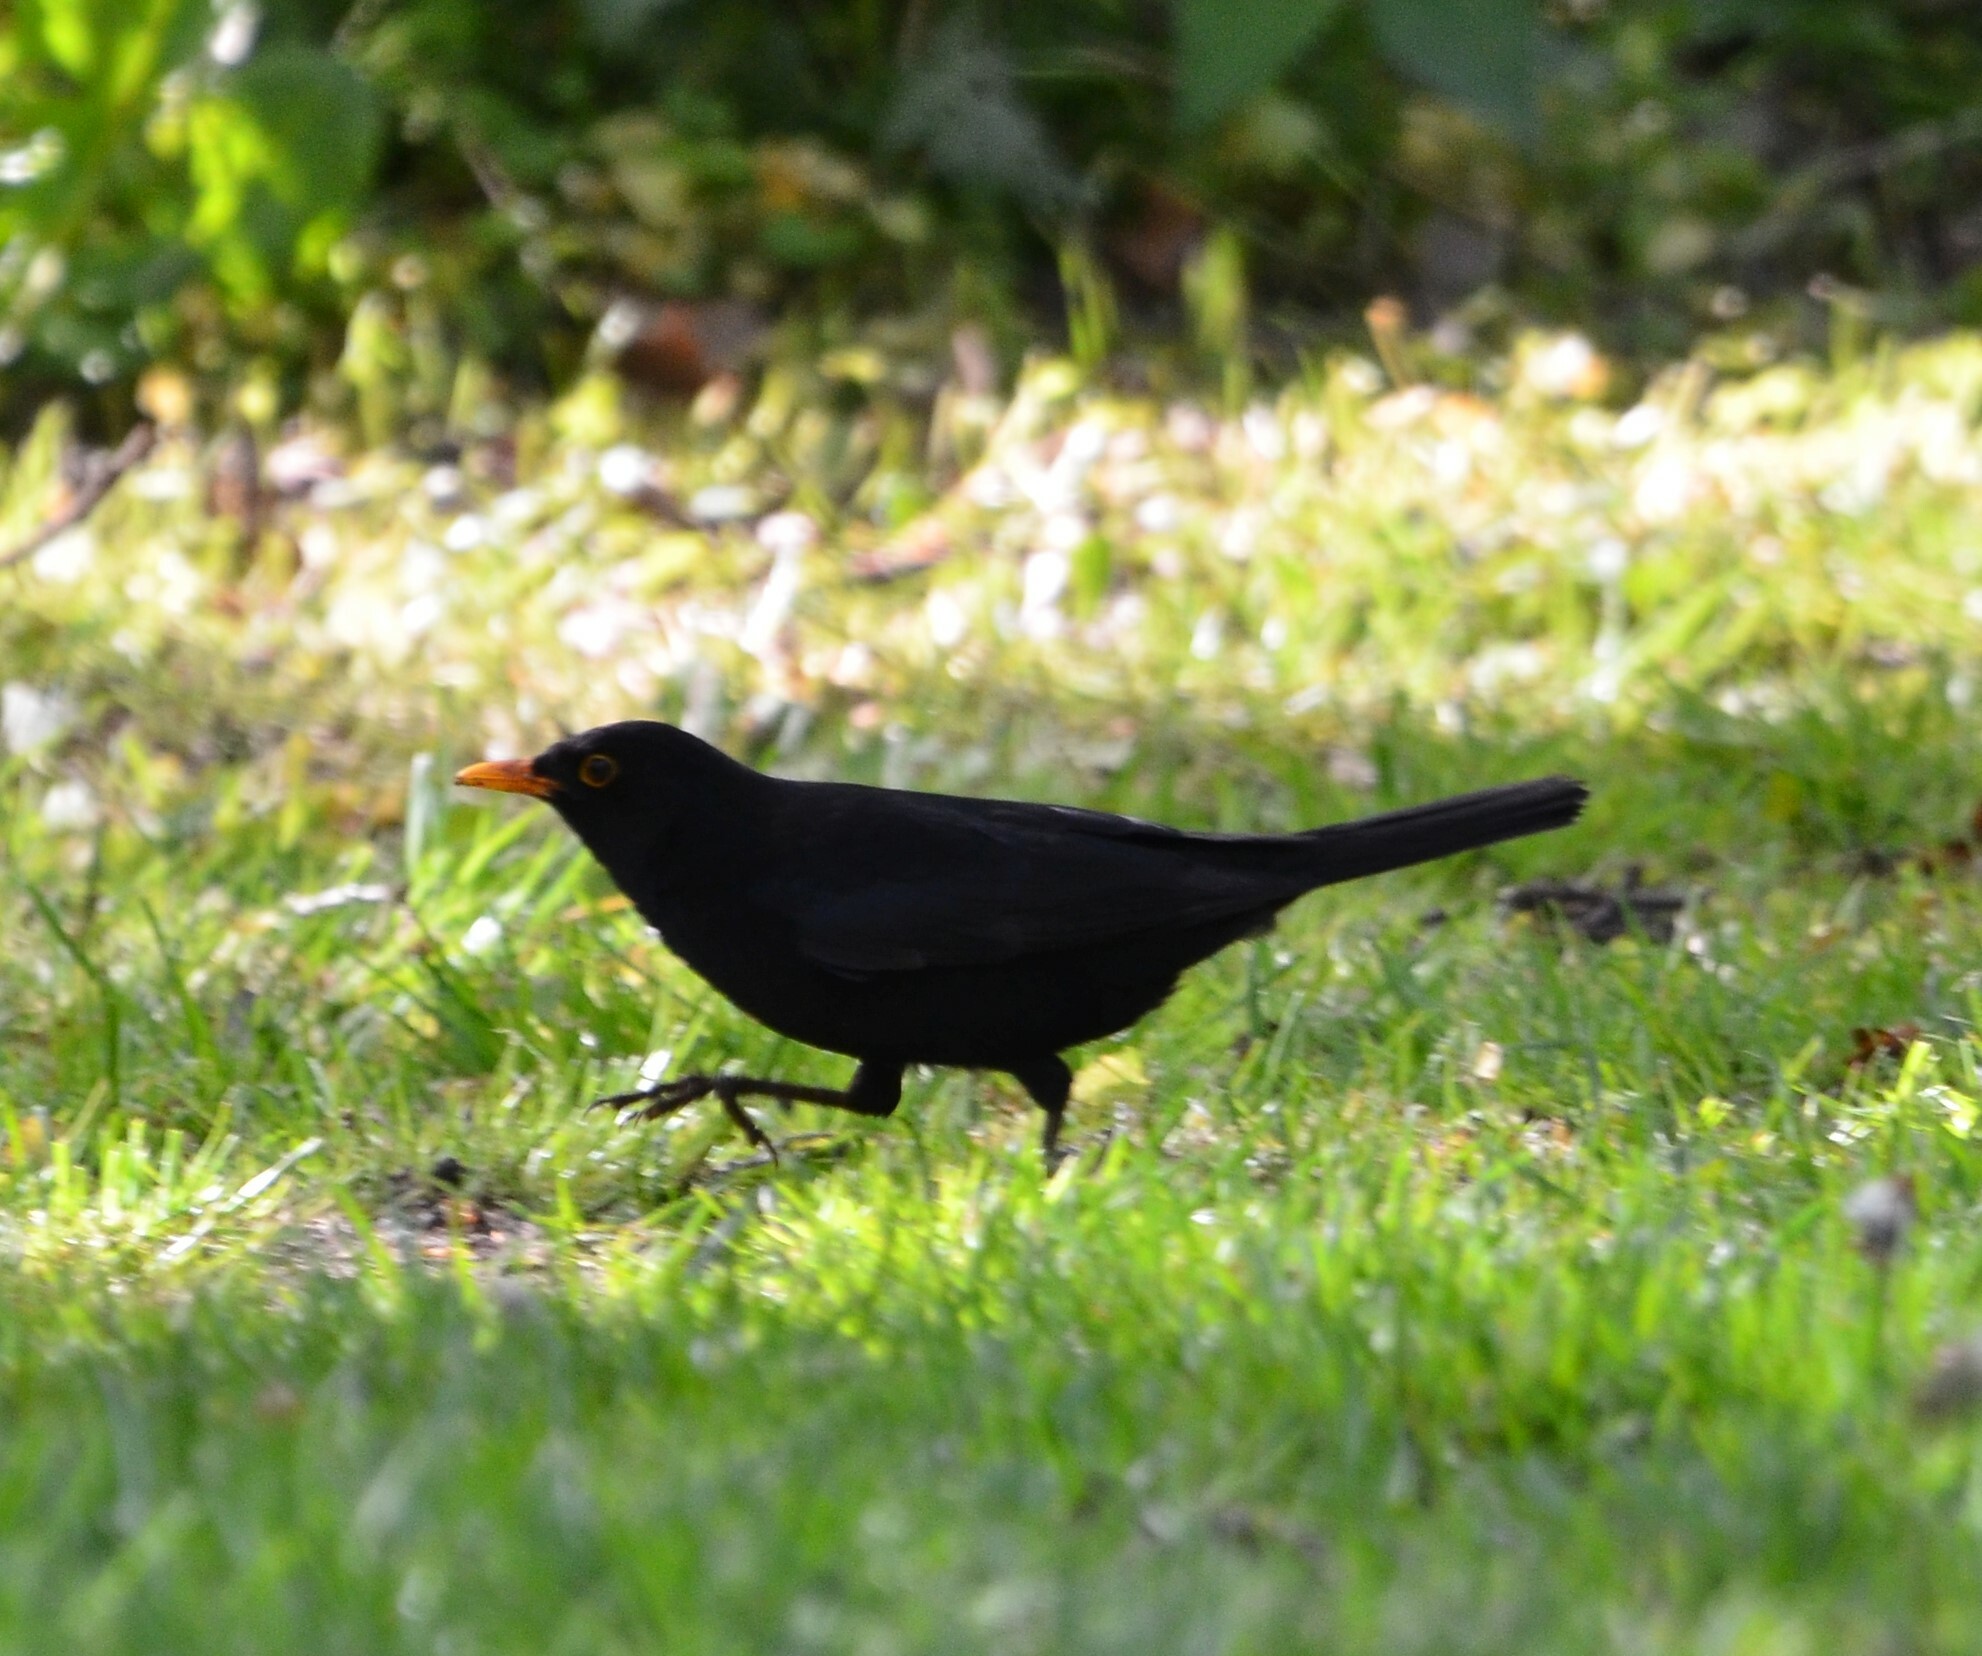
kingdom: Animalia
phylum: Chordata
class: Aves
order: Passeriformes
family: Turdidae
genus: Turdus
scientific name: Turdus merula
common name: Common blackbird
